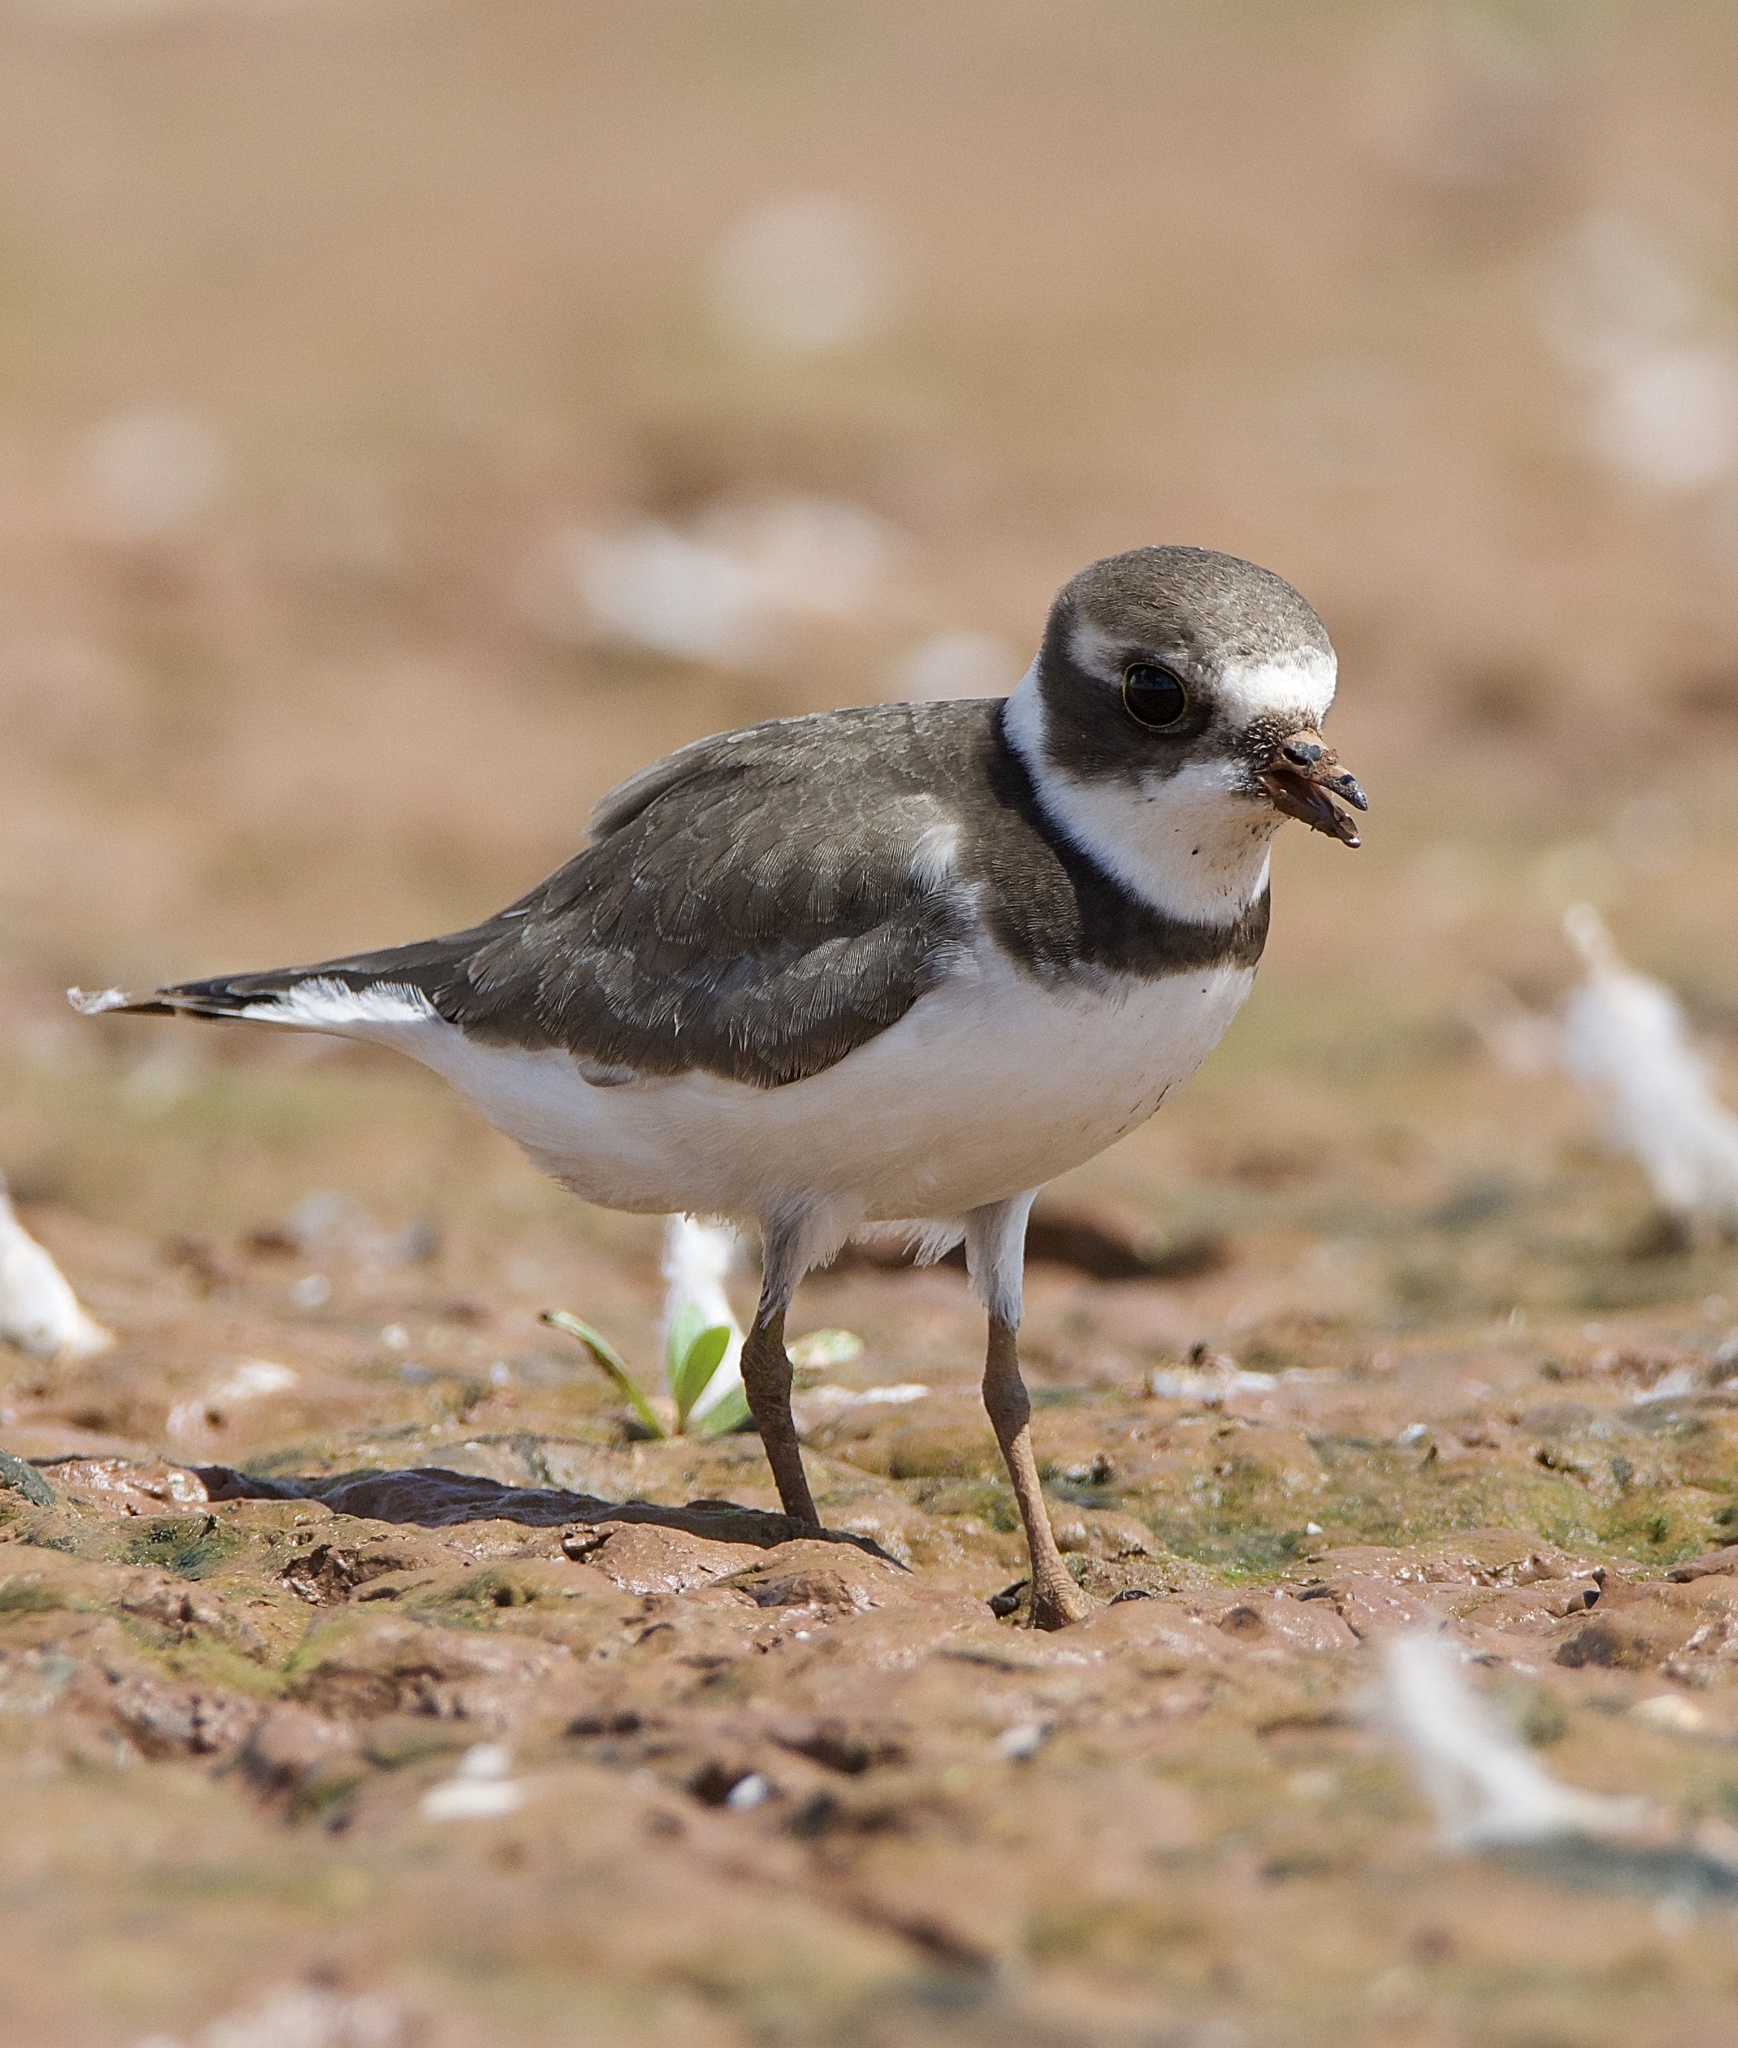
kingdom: Animalia
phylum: Chordata
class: Aves
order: Charadriiformes
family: Charadriidae
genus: Charadrius
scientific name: Charadrius semipalmatus
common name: Semipalmated plover
